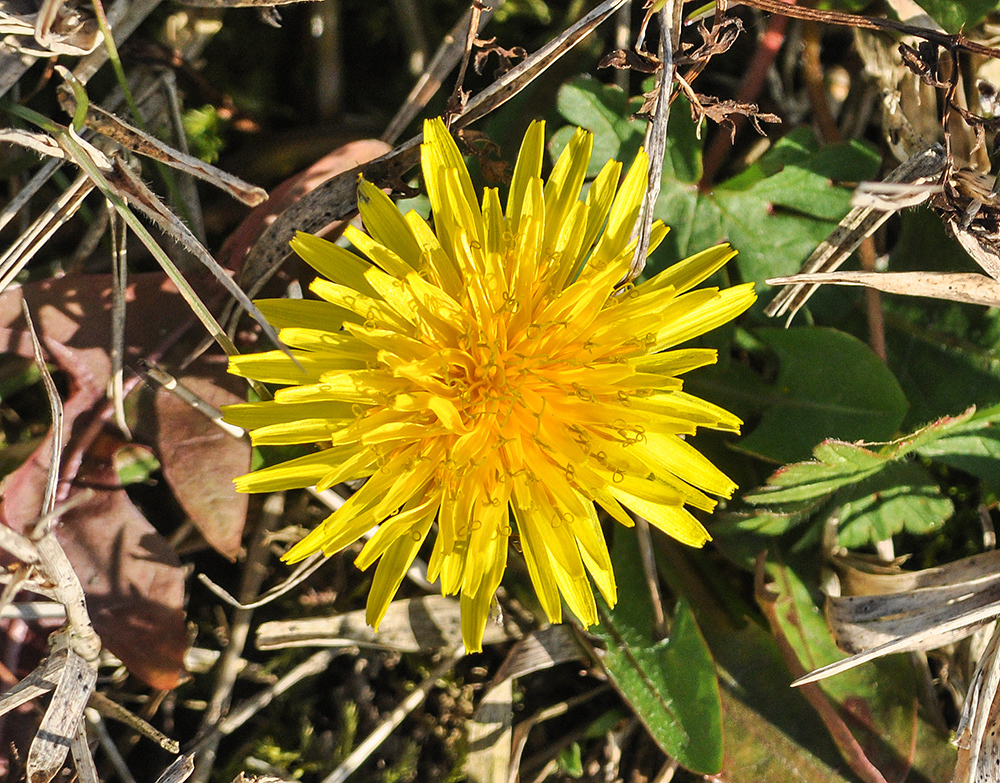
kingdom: Plantae
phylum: Tracheophyta
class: Magnoliopsida
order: Asterales
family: Asteraceae
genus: Taraxacum
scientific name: Taraxacum officinale
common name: Common dandelion
